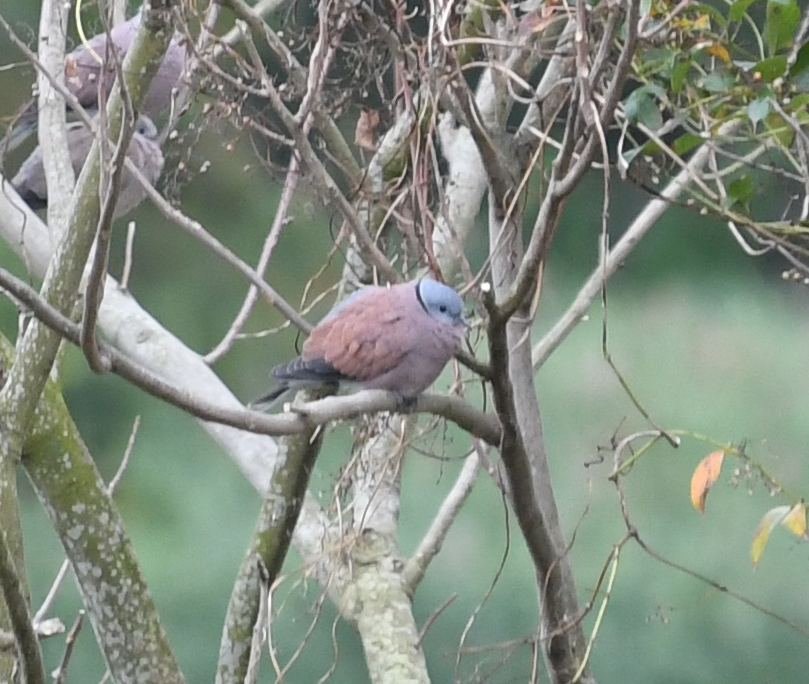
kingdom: Animalia
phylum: Chordata
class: Aves
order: Columbiformes
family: Columbidae
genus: Streptopelia
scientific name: Streptopelia tranquebarica
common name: Red turtle dove
